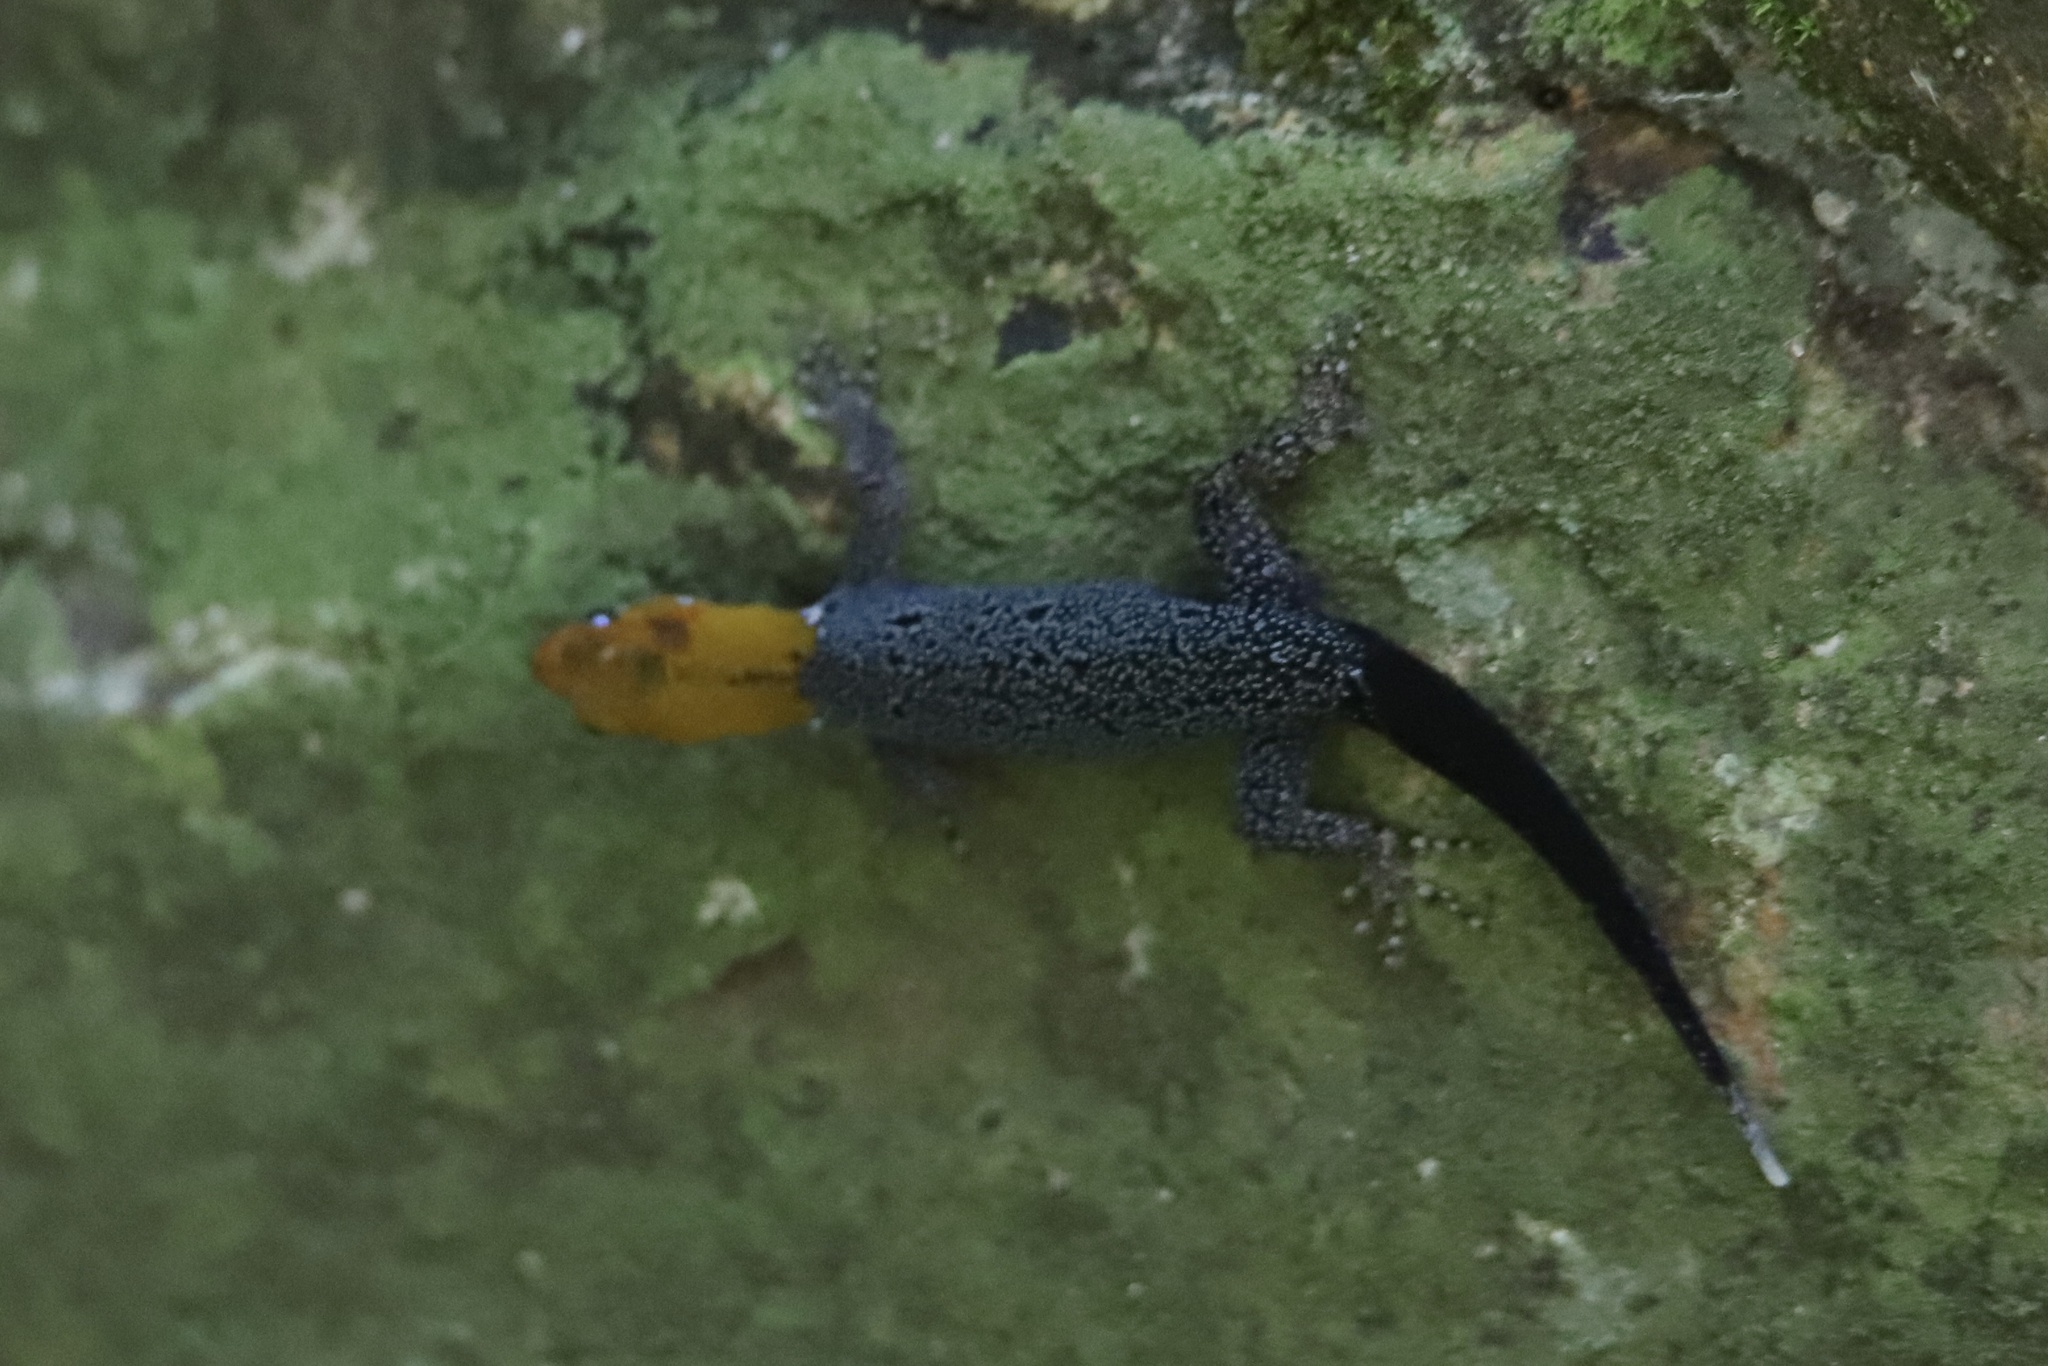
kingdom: Animalia
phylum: Chordata
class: Squamata
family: Sphaerodactylidae
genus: Gonatodes
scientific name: Gonatodes albogularis
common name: Yellow-headed gecko
